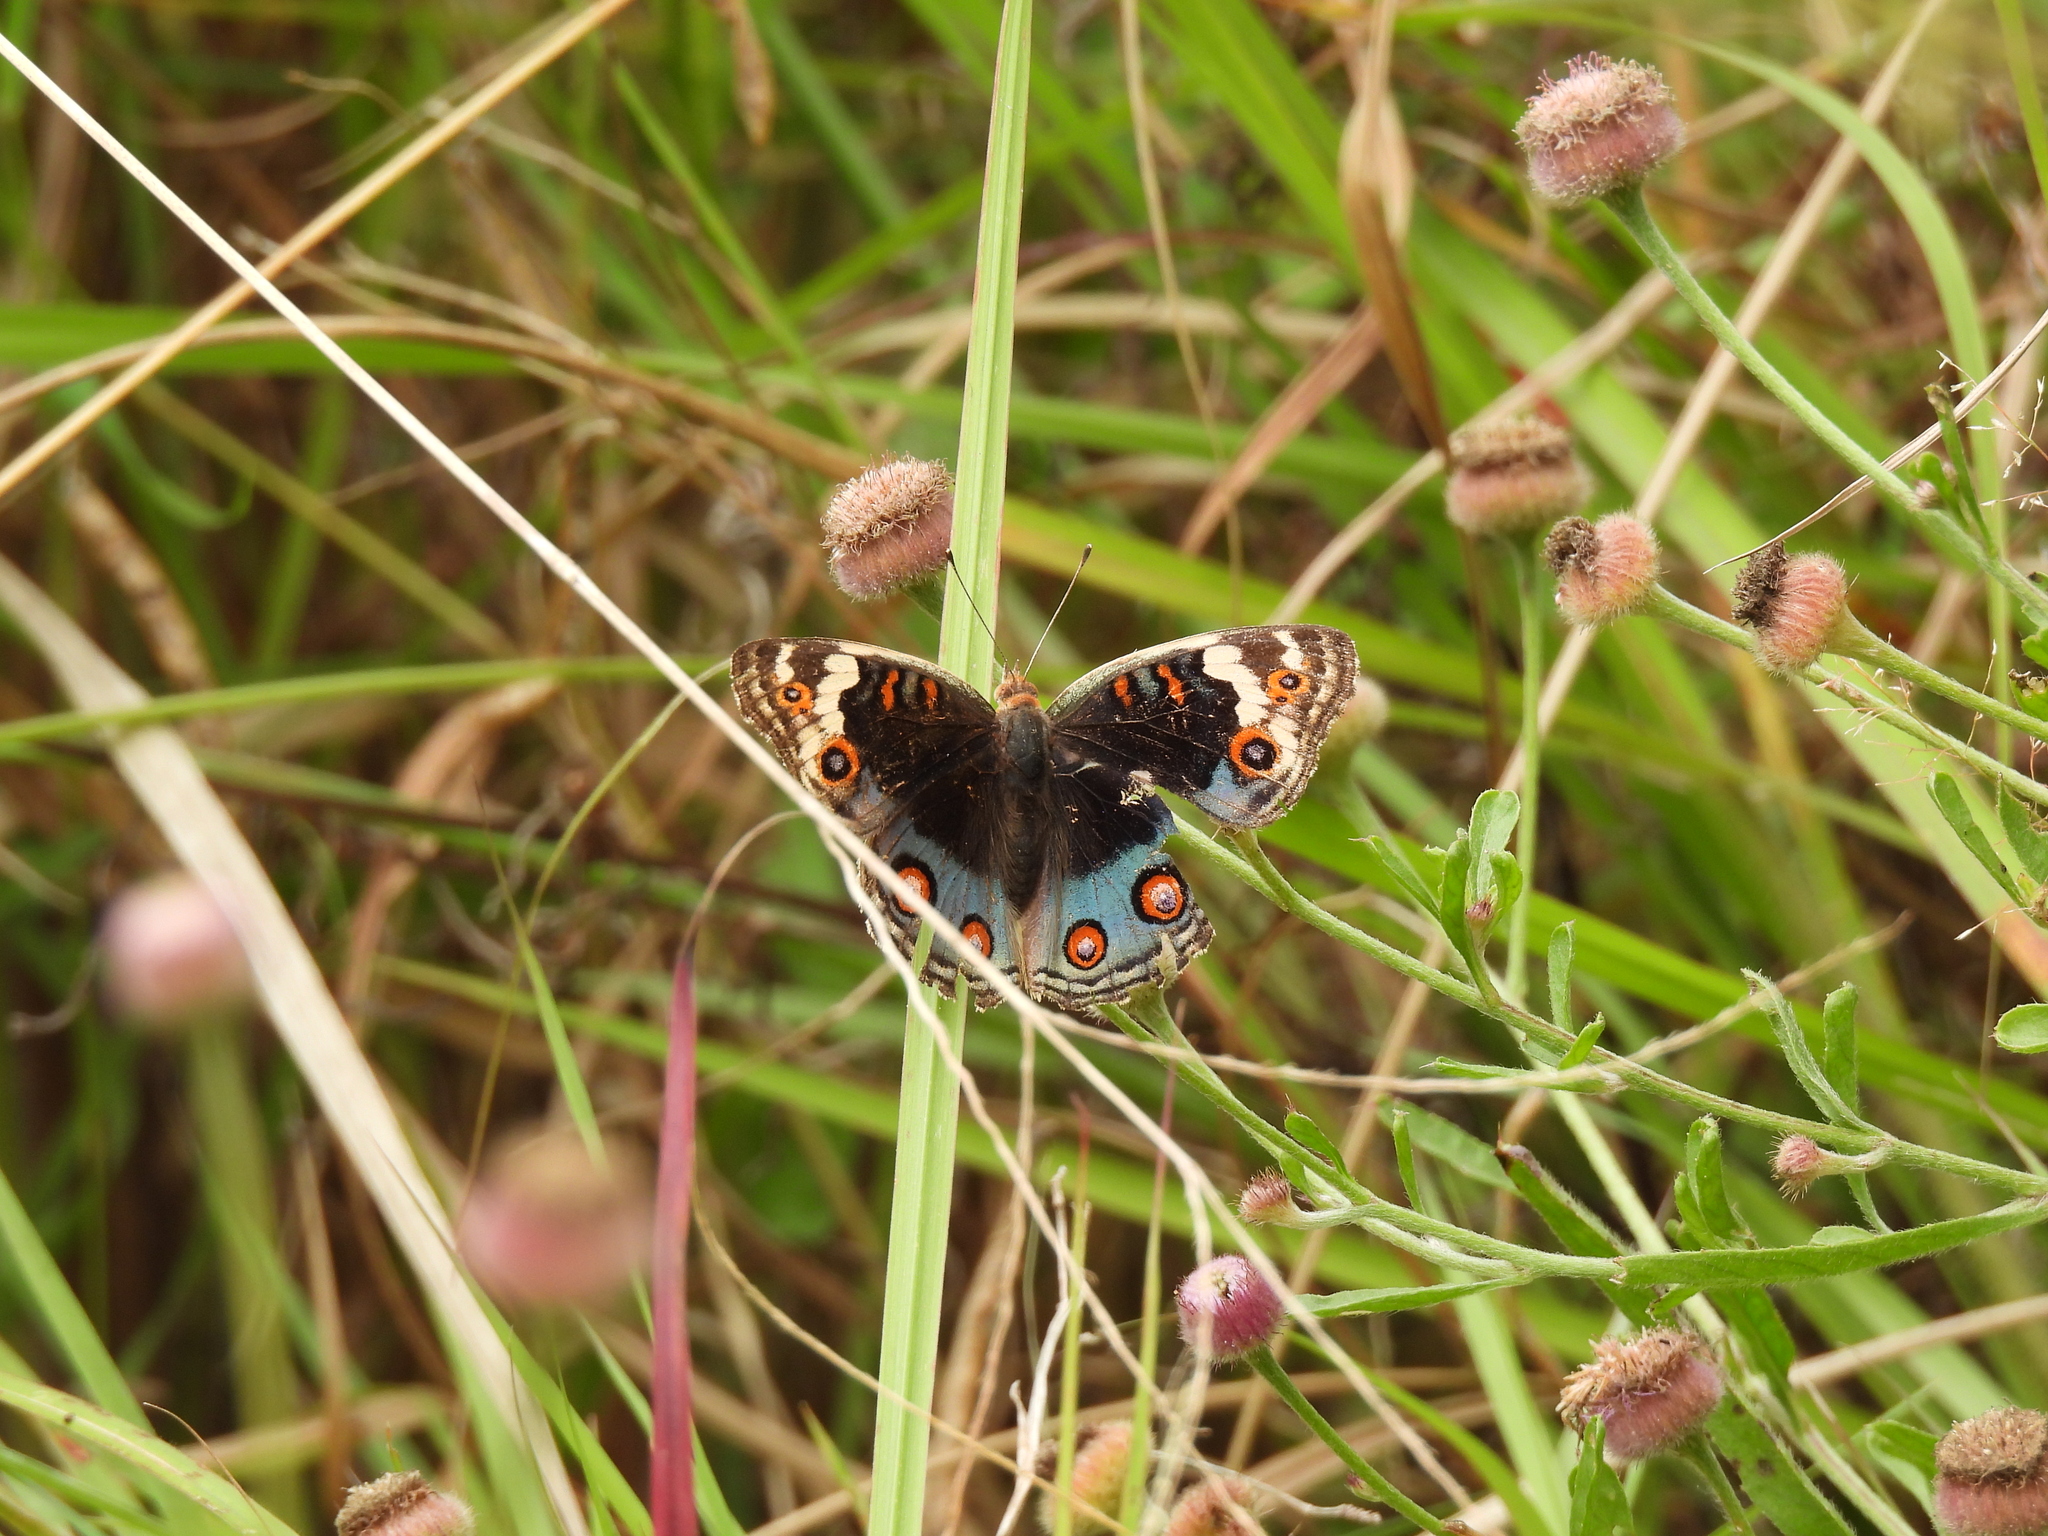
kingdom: Animalia
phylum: Arthropoda
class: Insecta
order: Lepidoptera
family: Nymphalidae
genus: Junonia
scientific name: Junonia orithya
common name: Blue pansy
